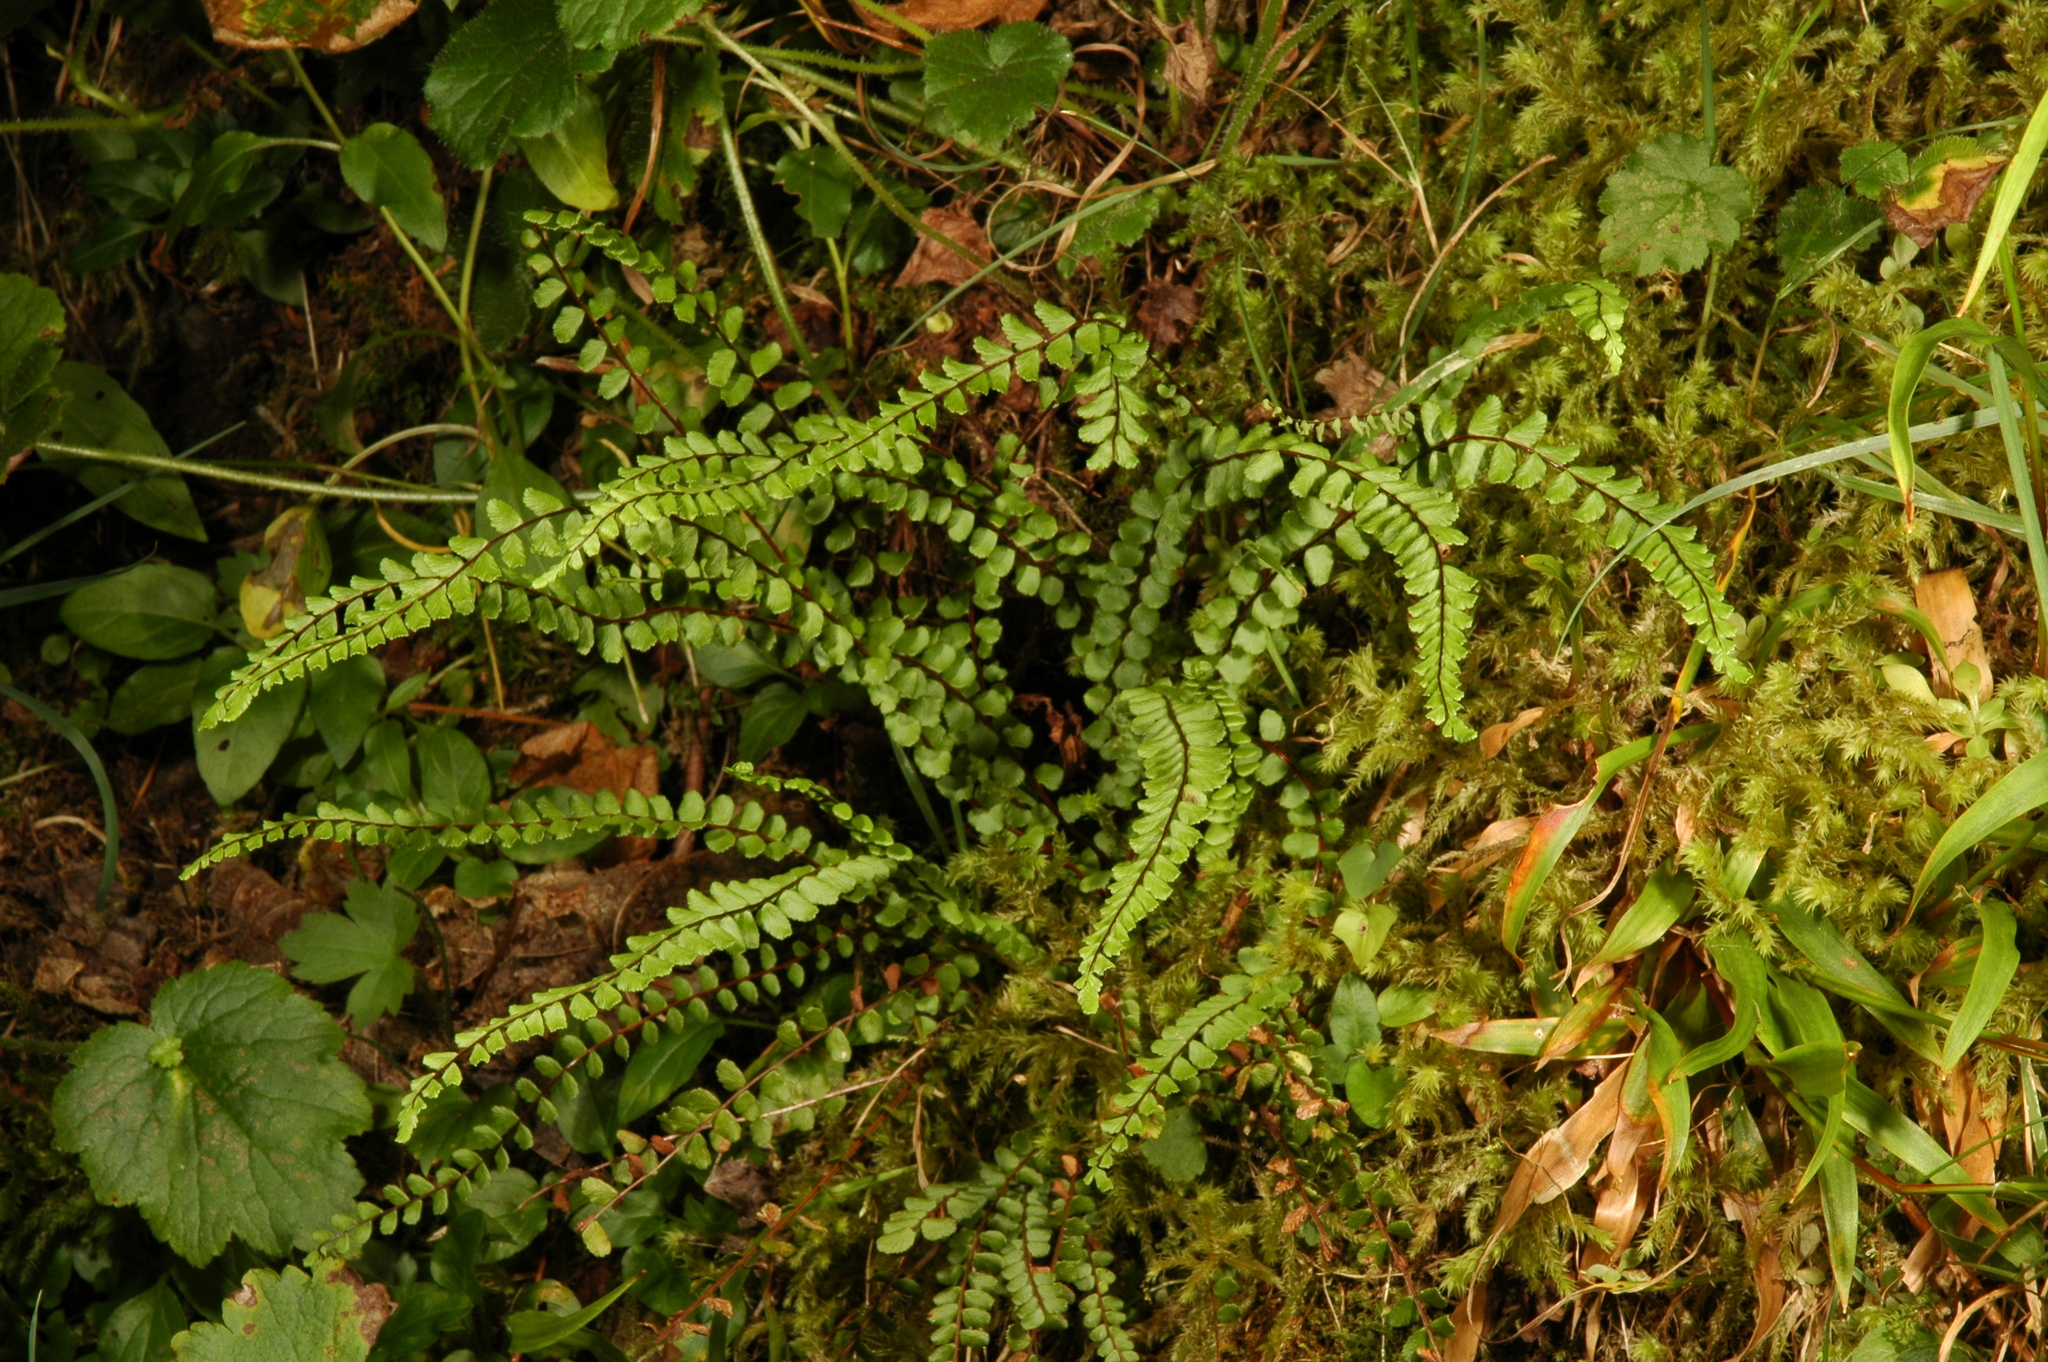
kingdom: Plantae
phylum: Tracheophyta
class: Polypodiopsida
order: Polypodiales
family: Aspleniaceae
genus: Asplenium
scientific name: Asplenium trichomanes
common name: Maidenhair spleenwort
